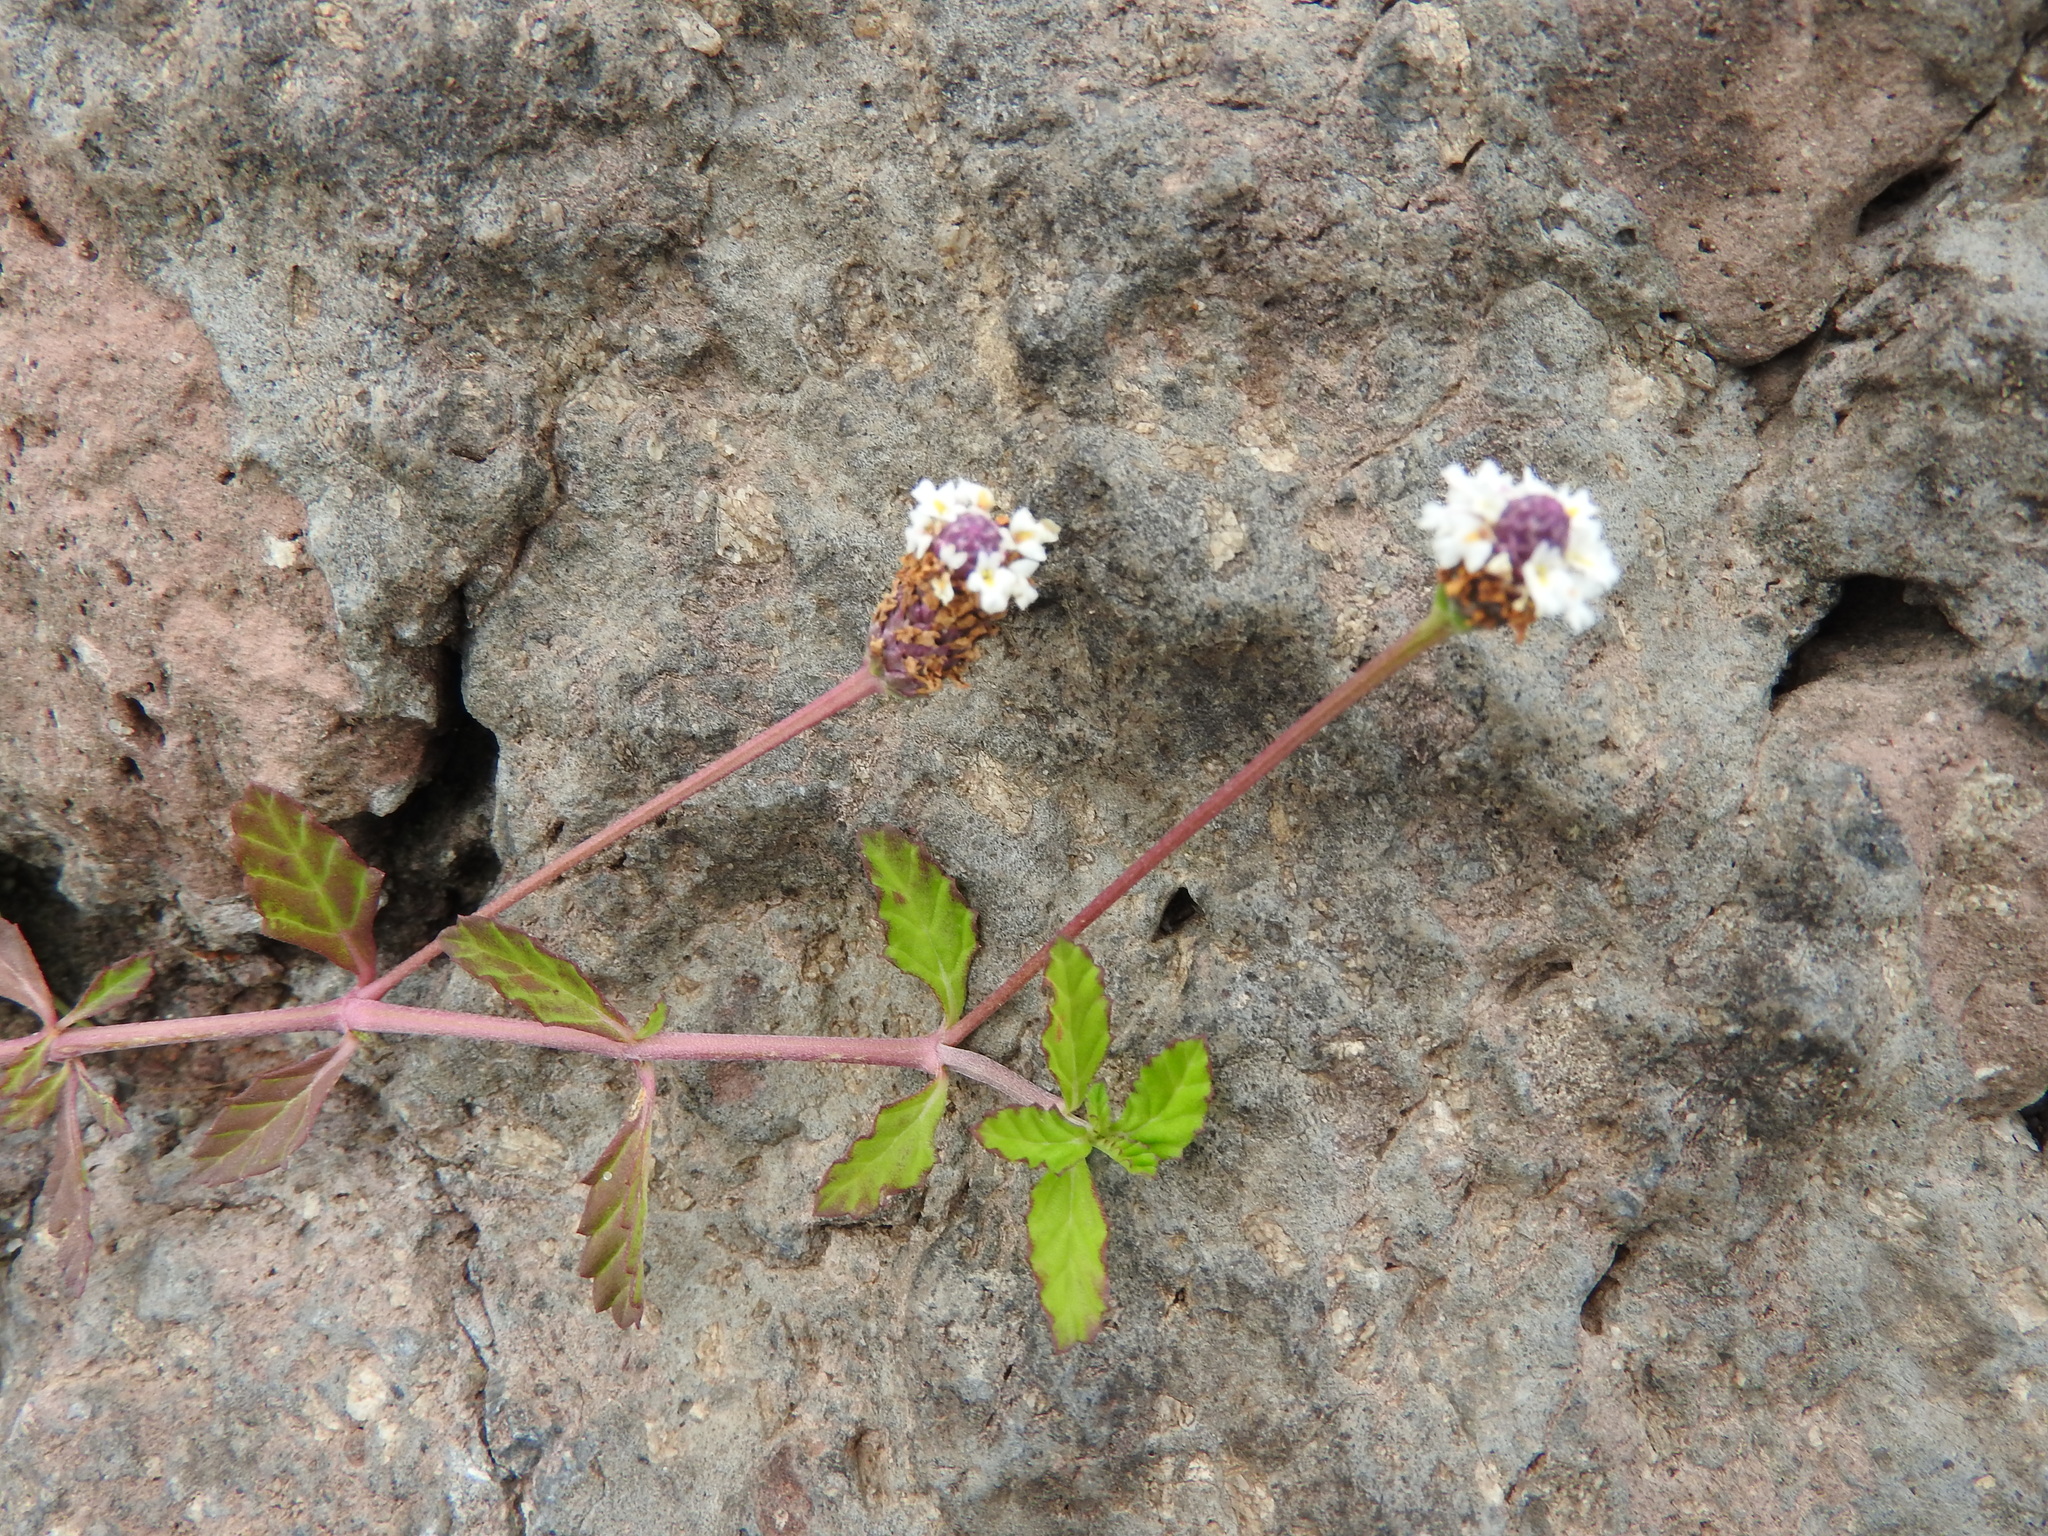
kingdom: Plantae
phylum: Tracheophyta
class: Magnoliopsida
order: Lamiales
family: Verbenaceae
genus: Phyla
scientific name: Phyla nodiflora
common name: Frogfruit
